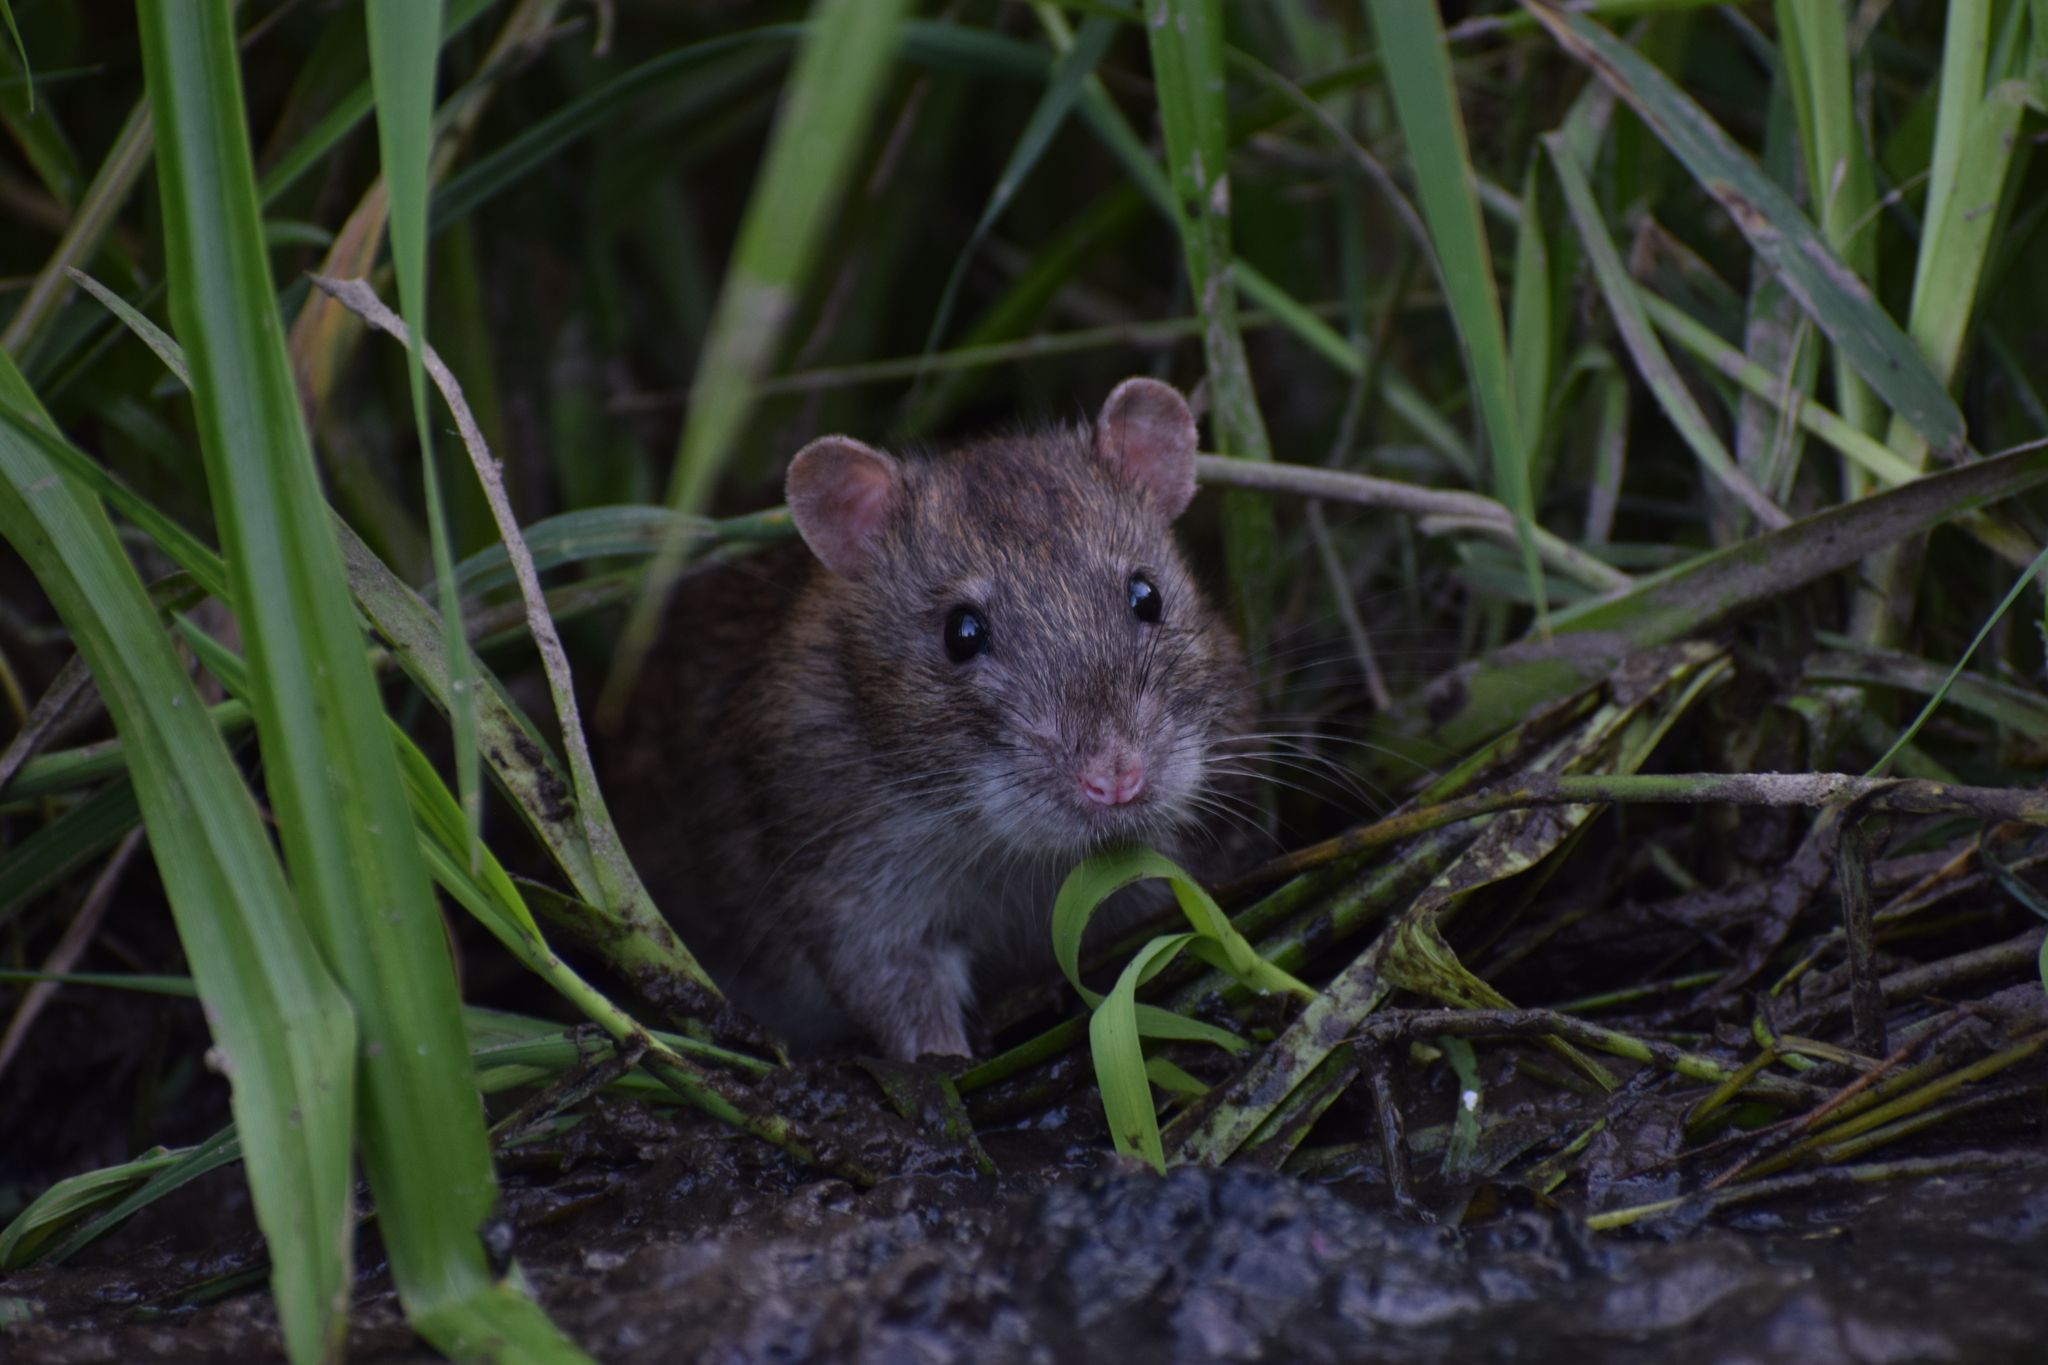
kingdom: Animalia
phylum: Chordata
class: Mammalia
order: Rodentia
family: Muridae
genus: Rattus
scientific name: Rattus norvegicus
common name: Brown rat
